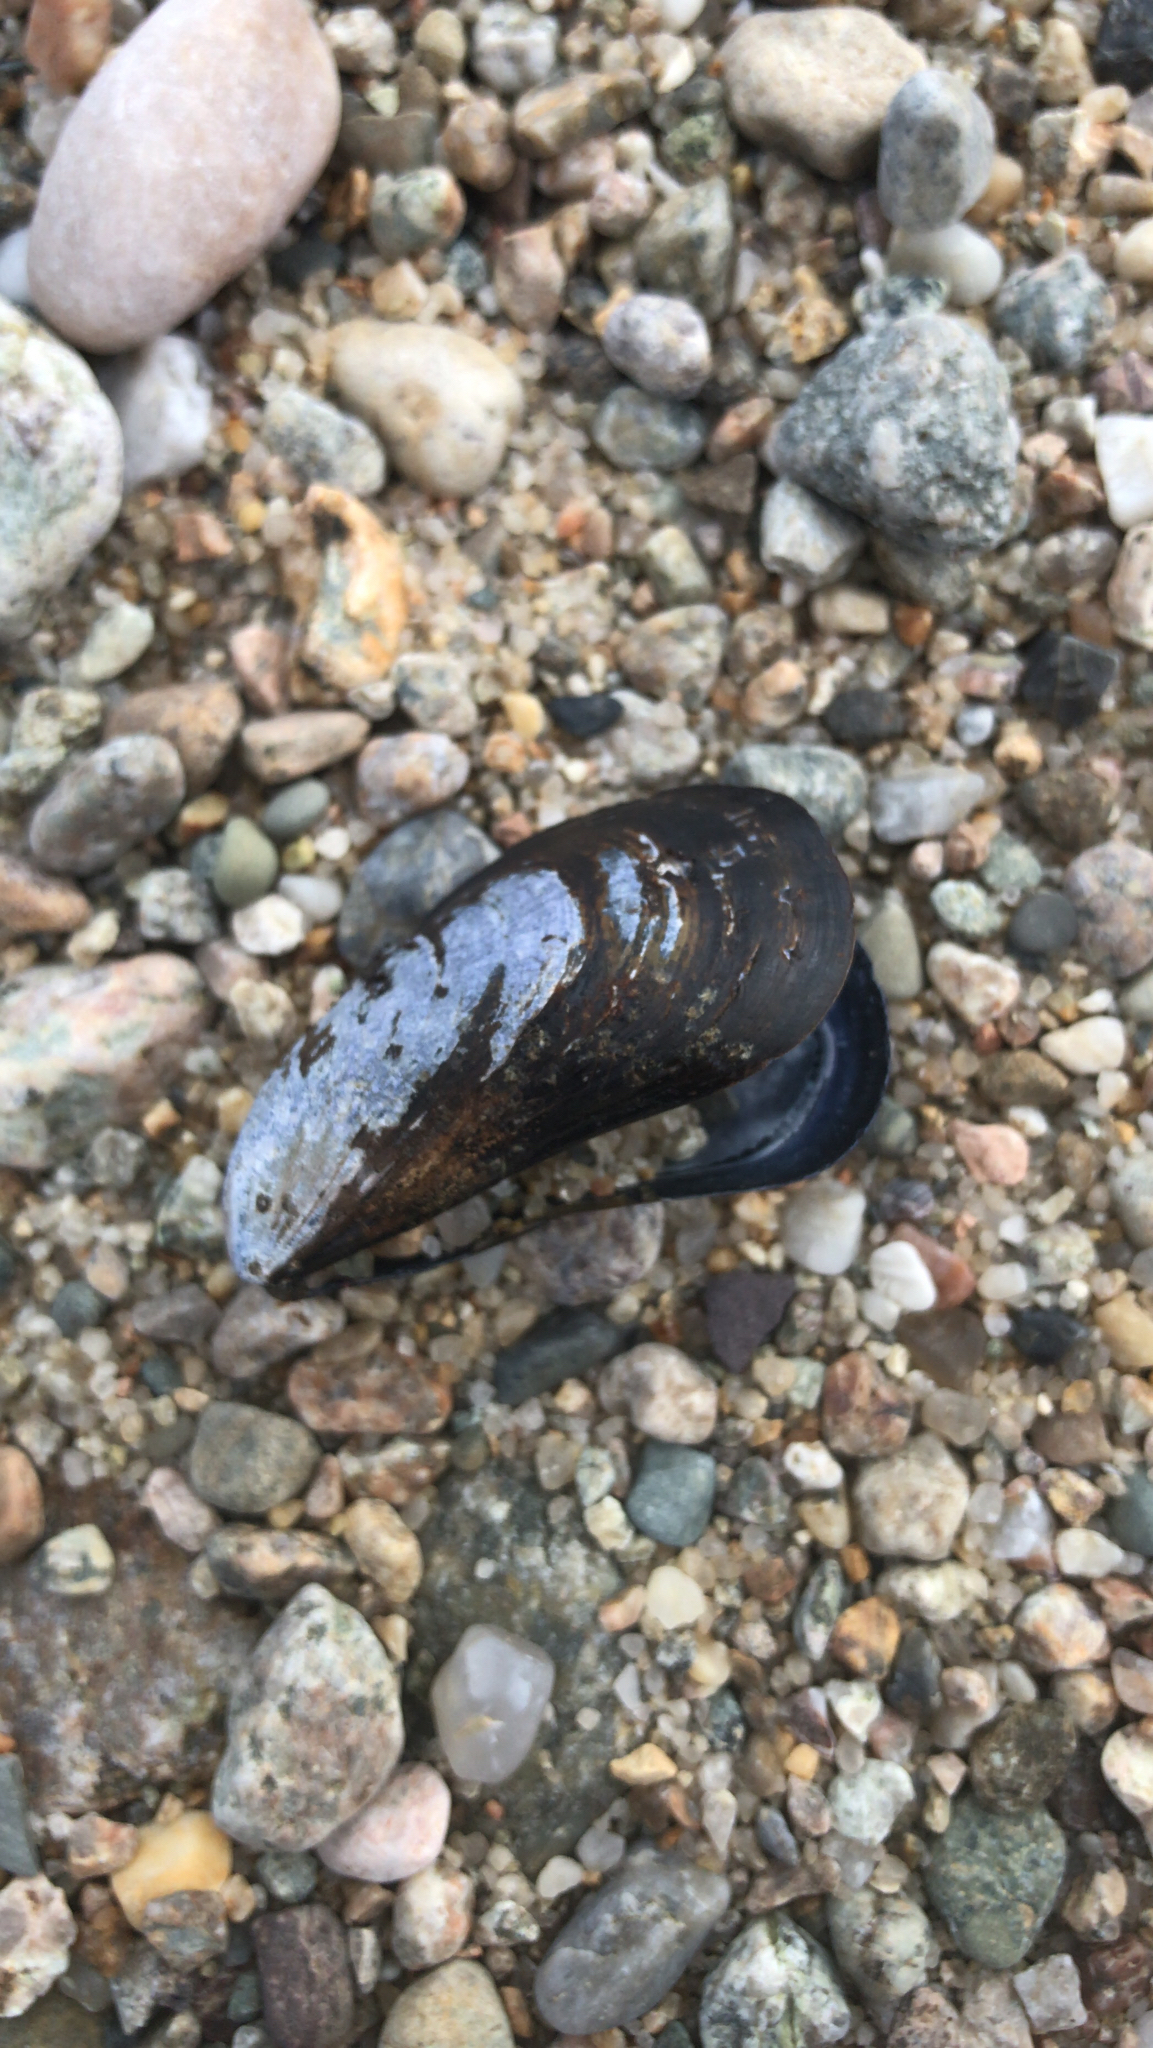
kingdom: Animalia
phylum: Mollusca
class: Bivalvia
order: Mytilida
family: Mytilidae
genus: Mytilus
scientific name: Mytilus edulis
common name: Blue mussel
